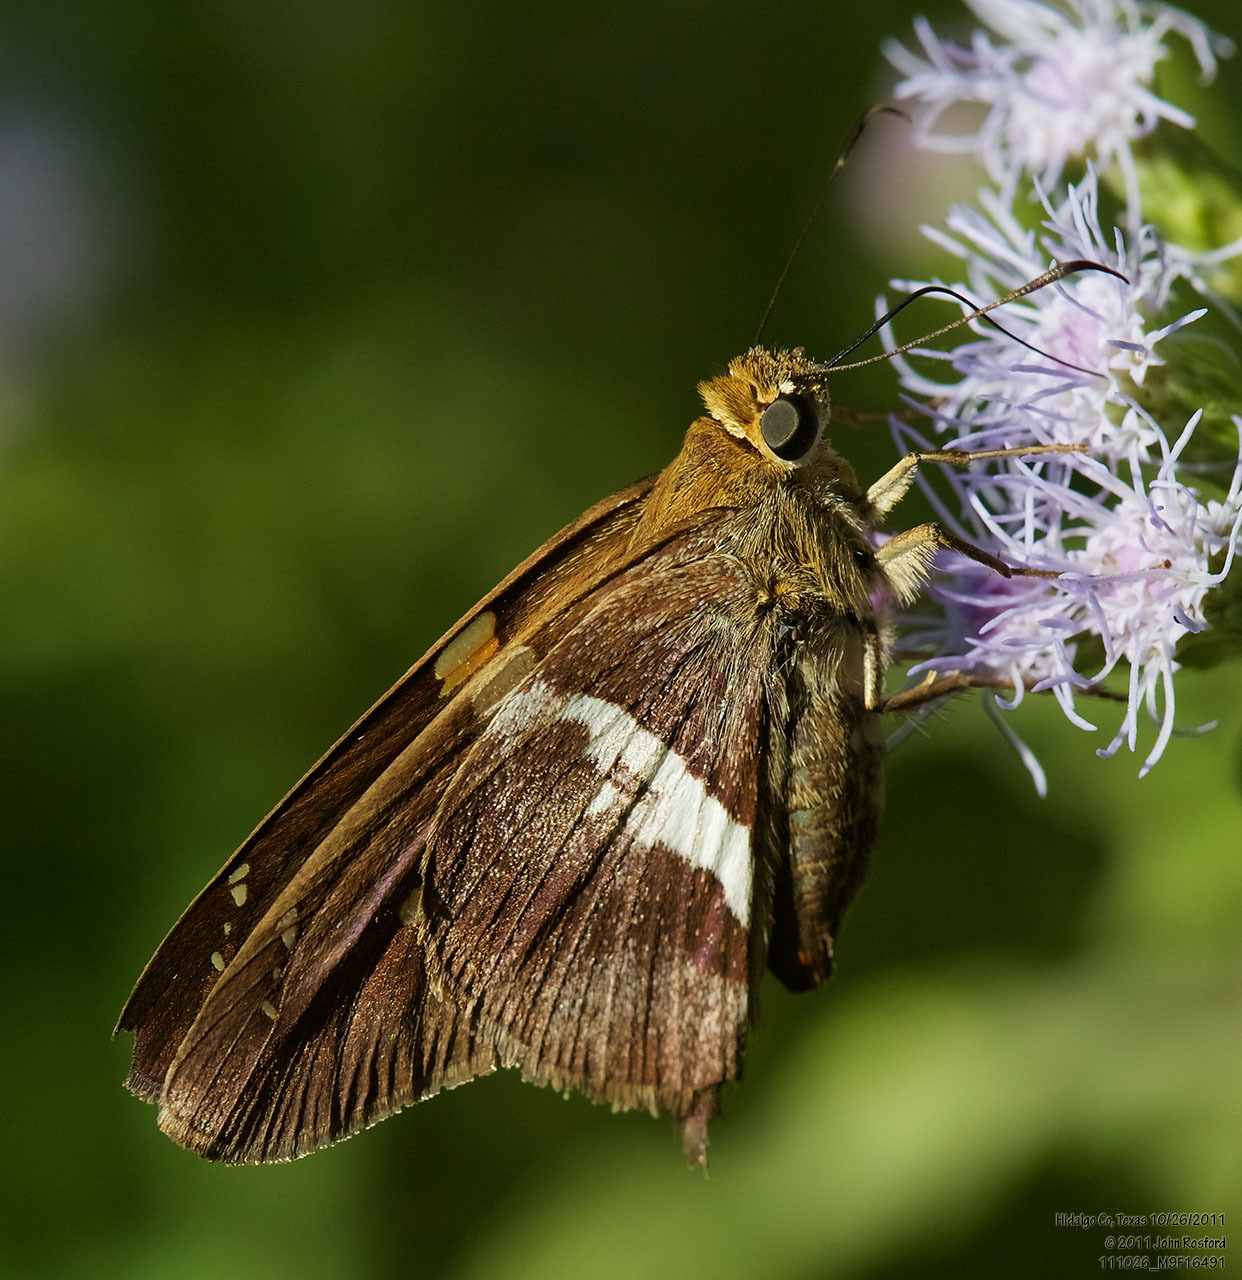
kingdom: Animalia
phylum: Arthropoda
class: Insecta
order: Lepidoptera
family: Hesperiidae
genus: Aguna
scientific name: Aguna asander
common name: Gold-spotted aguna
